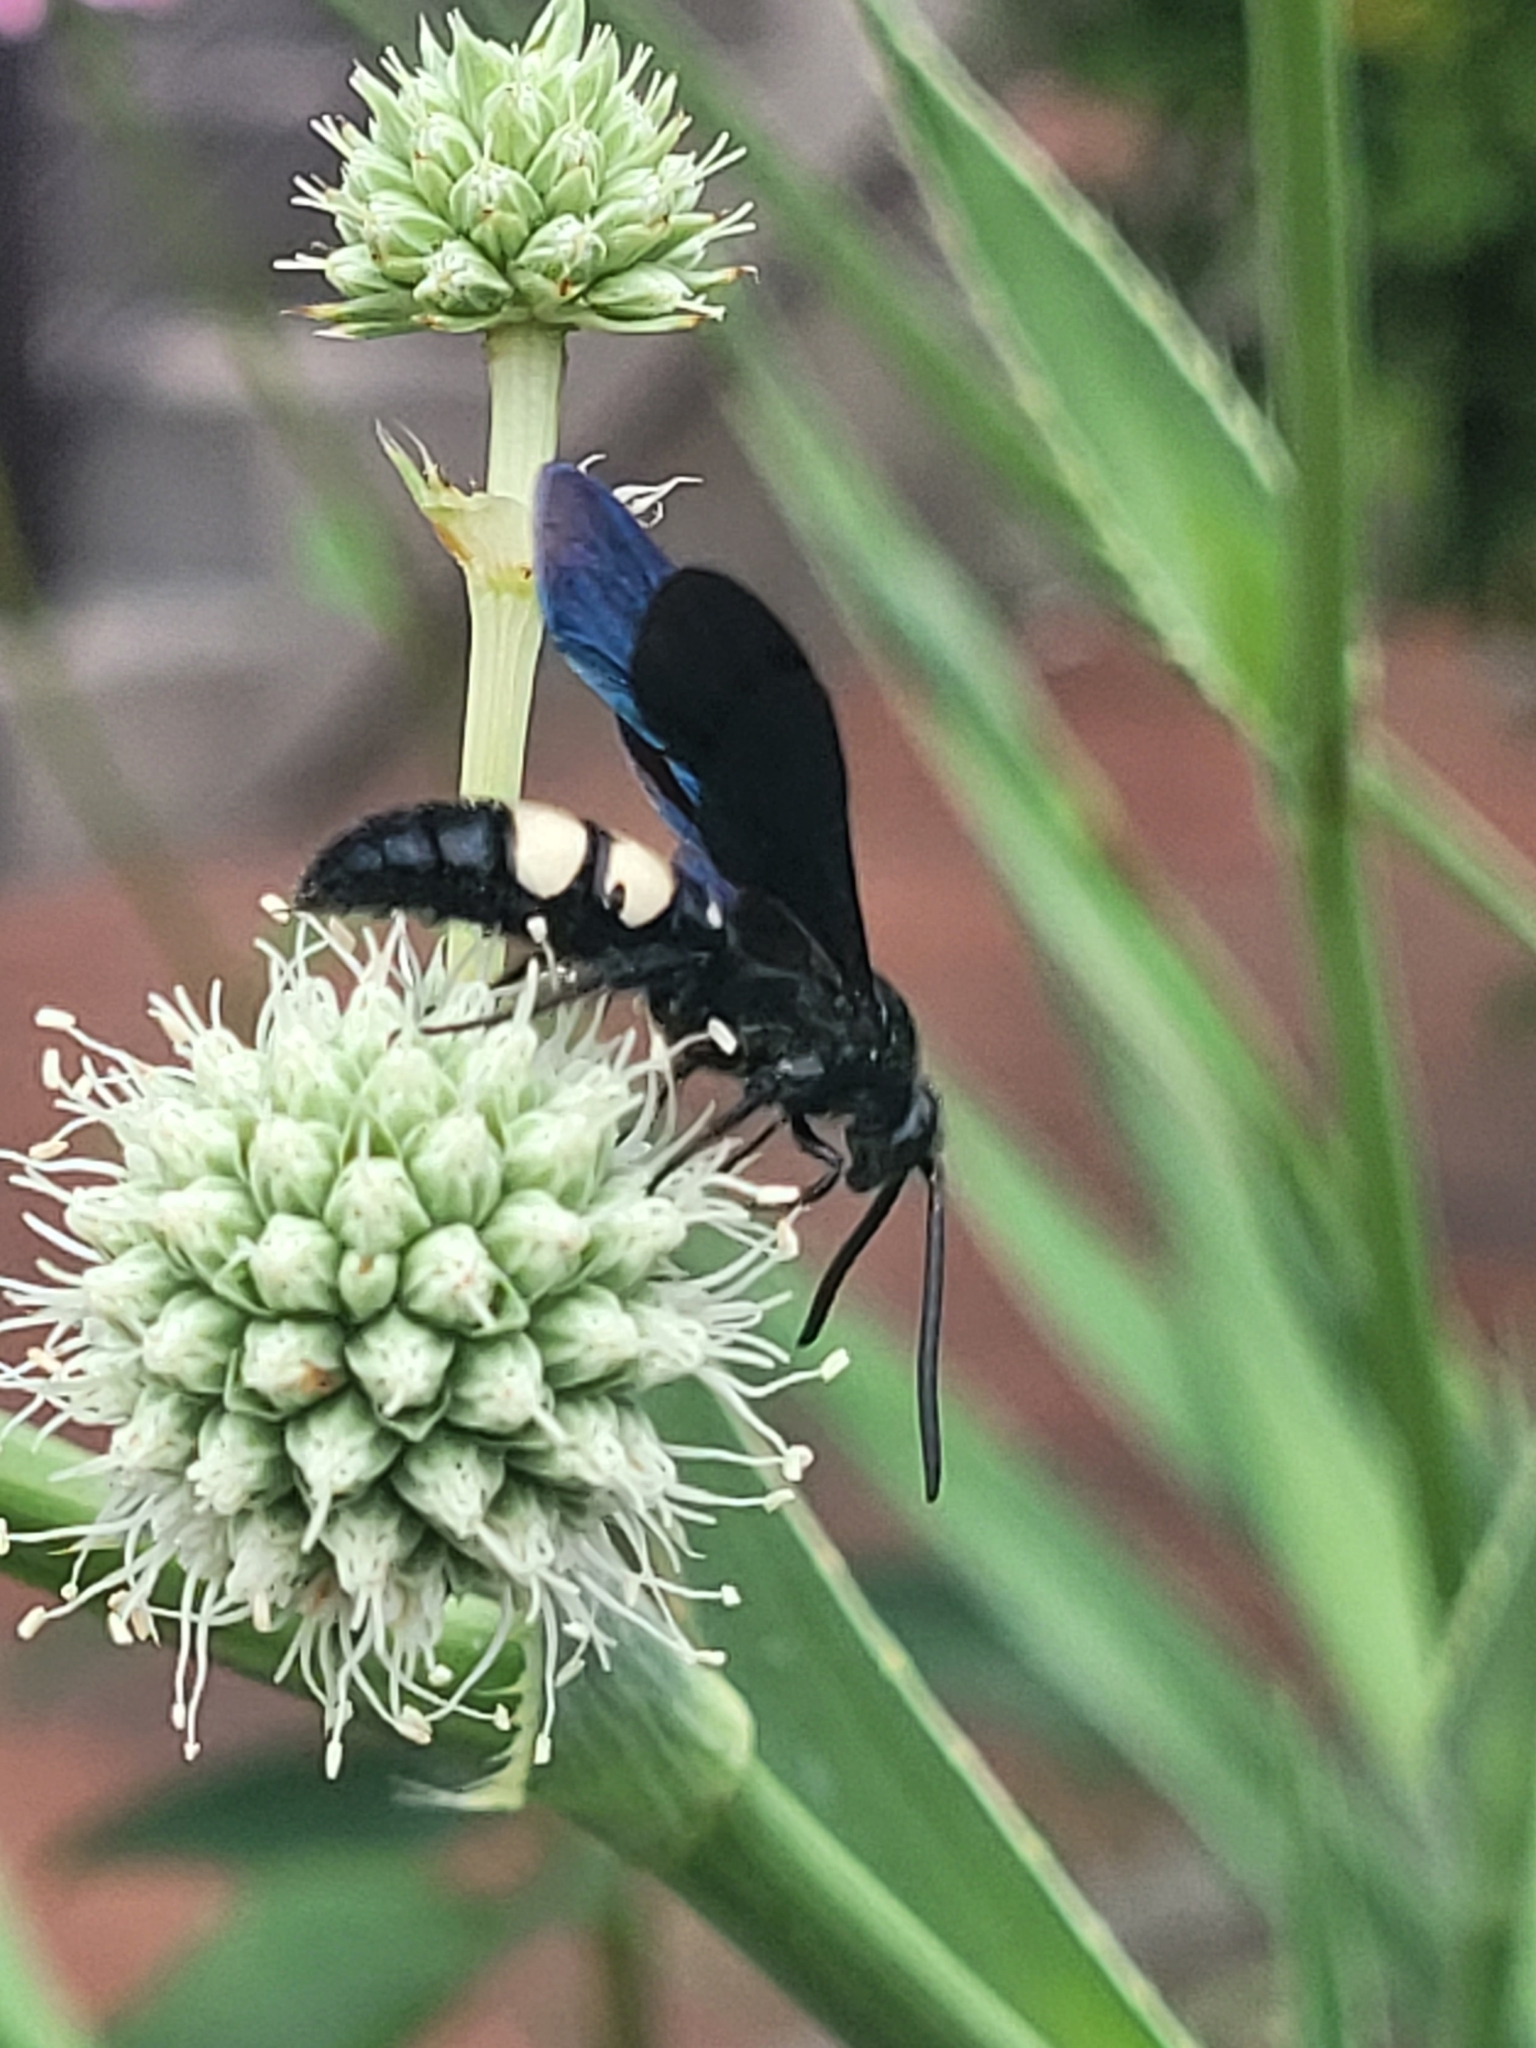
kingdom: Animalia
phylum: Arthropoda
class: Insecta
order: Hymenoptera
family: Scoliidae
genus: Scolia
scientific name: Scolia bicincta
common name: Double-banded scoliid wasp
